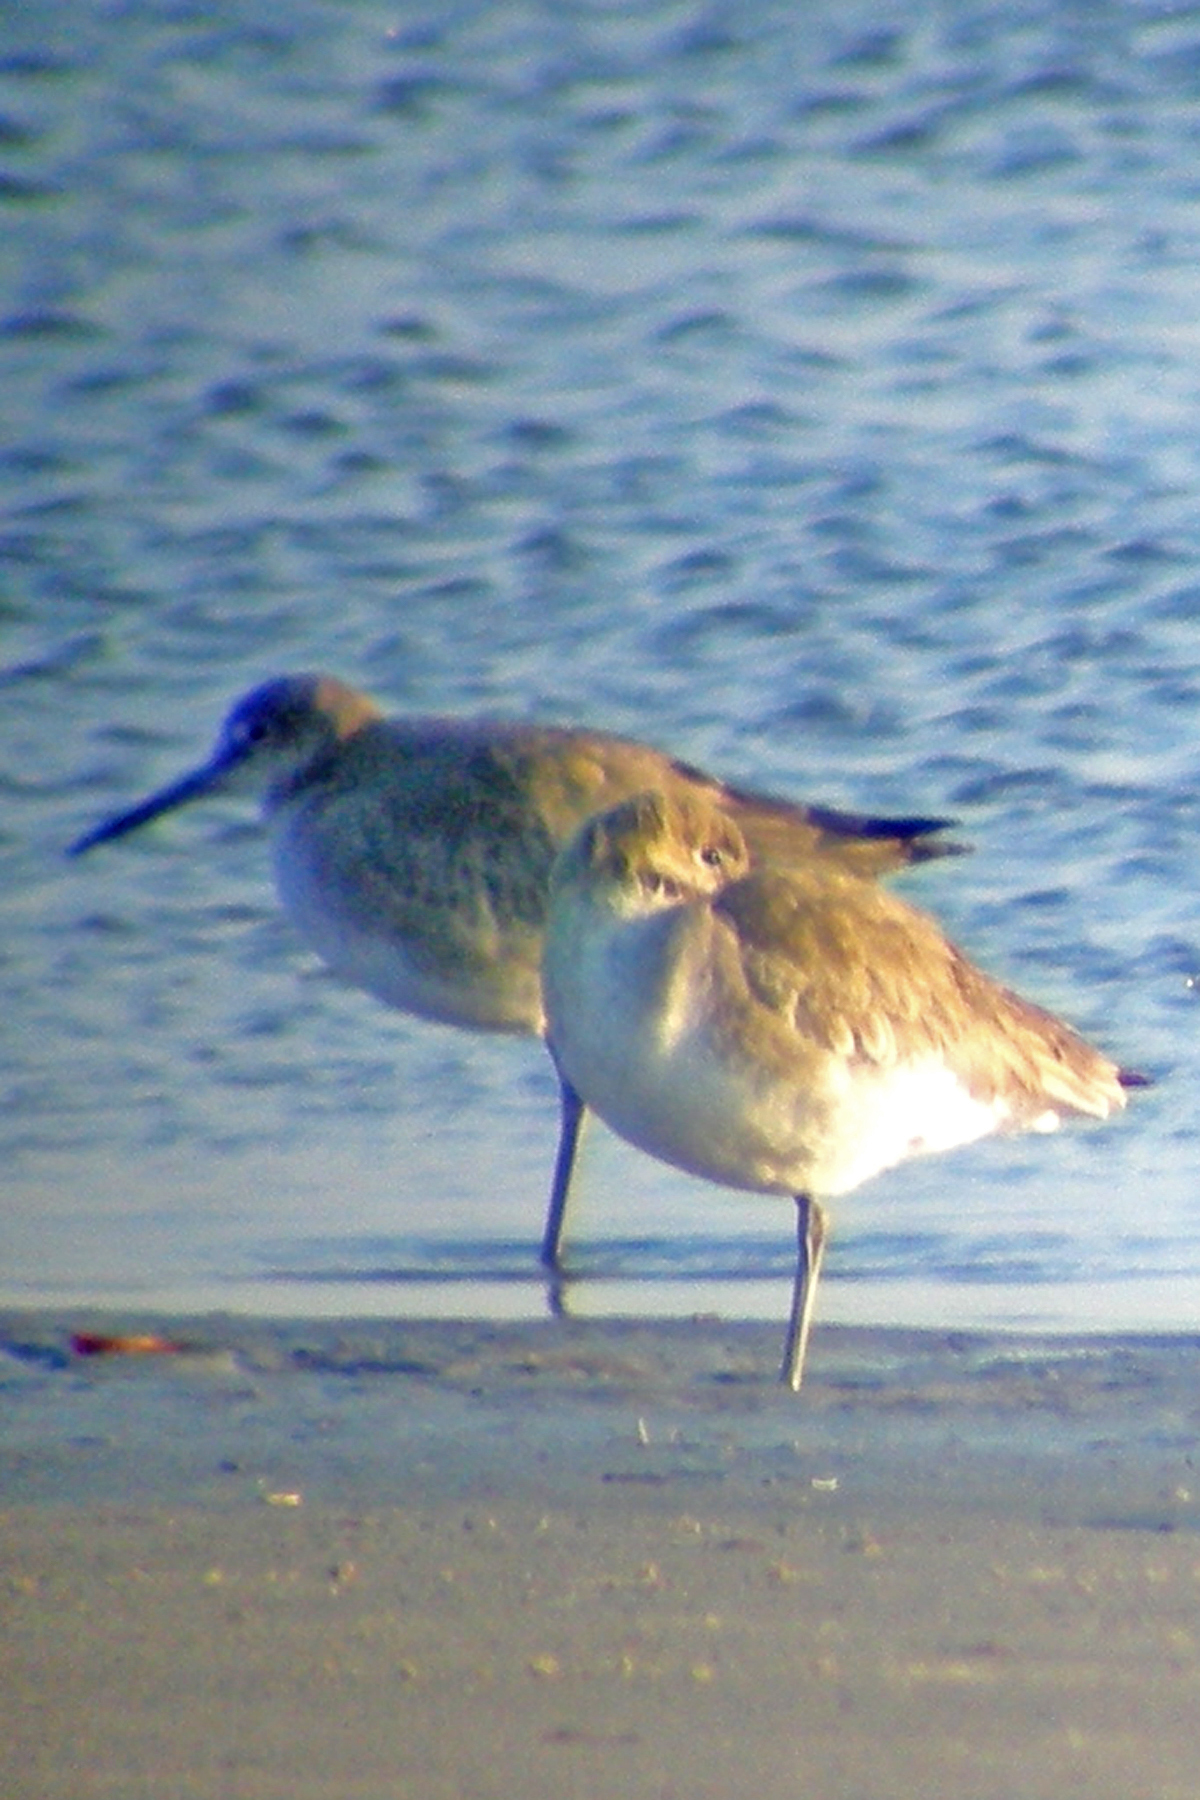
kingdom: Animalia
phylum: Chordata
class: Aves
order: Charadriiformes
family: Scolopacidae
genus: Tringa
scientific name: Tringa semipalmata
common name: Willet
